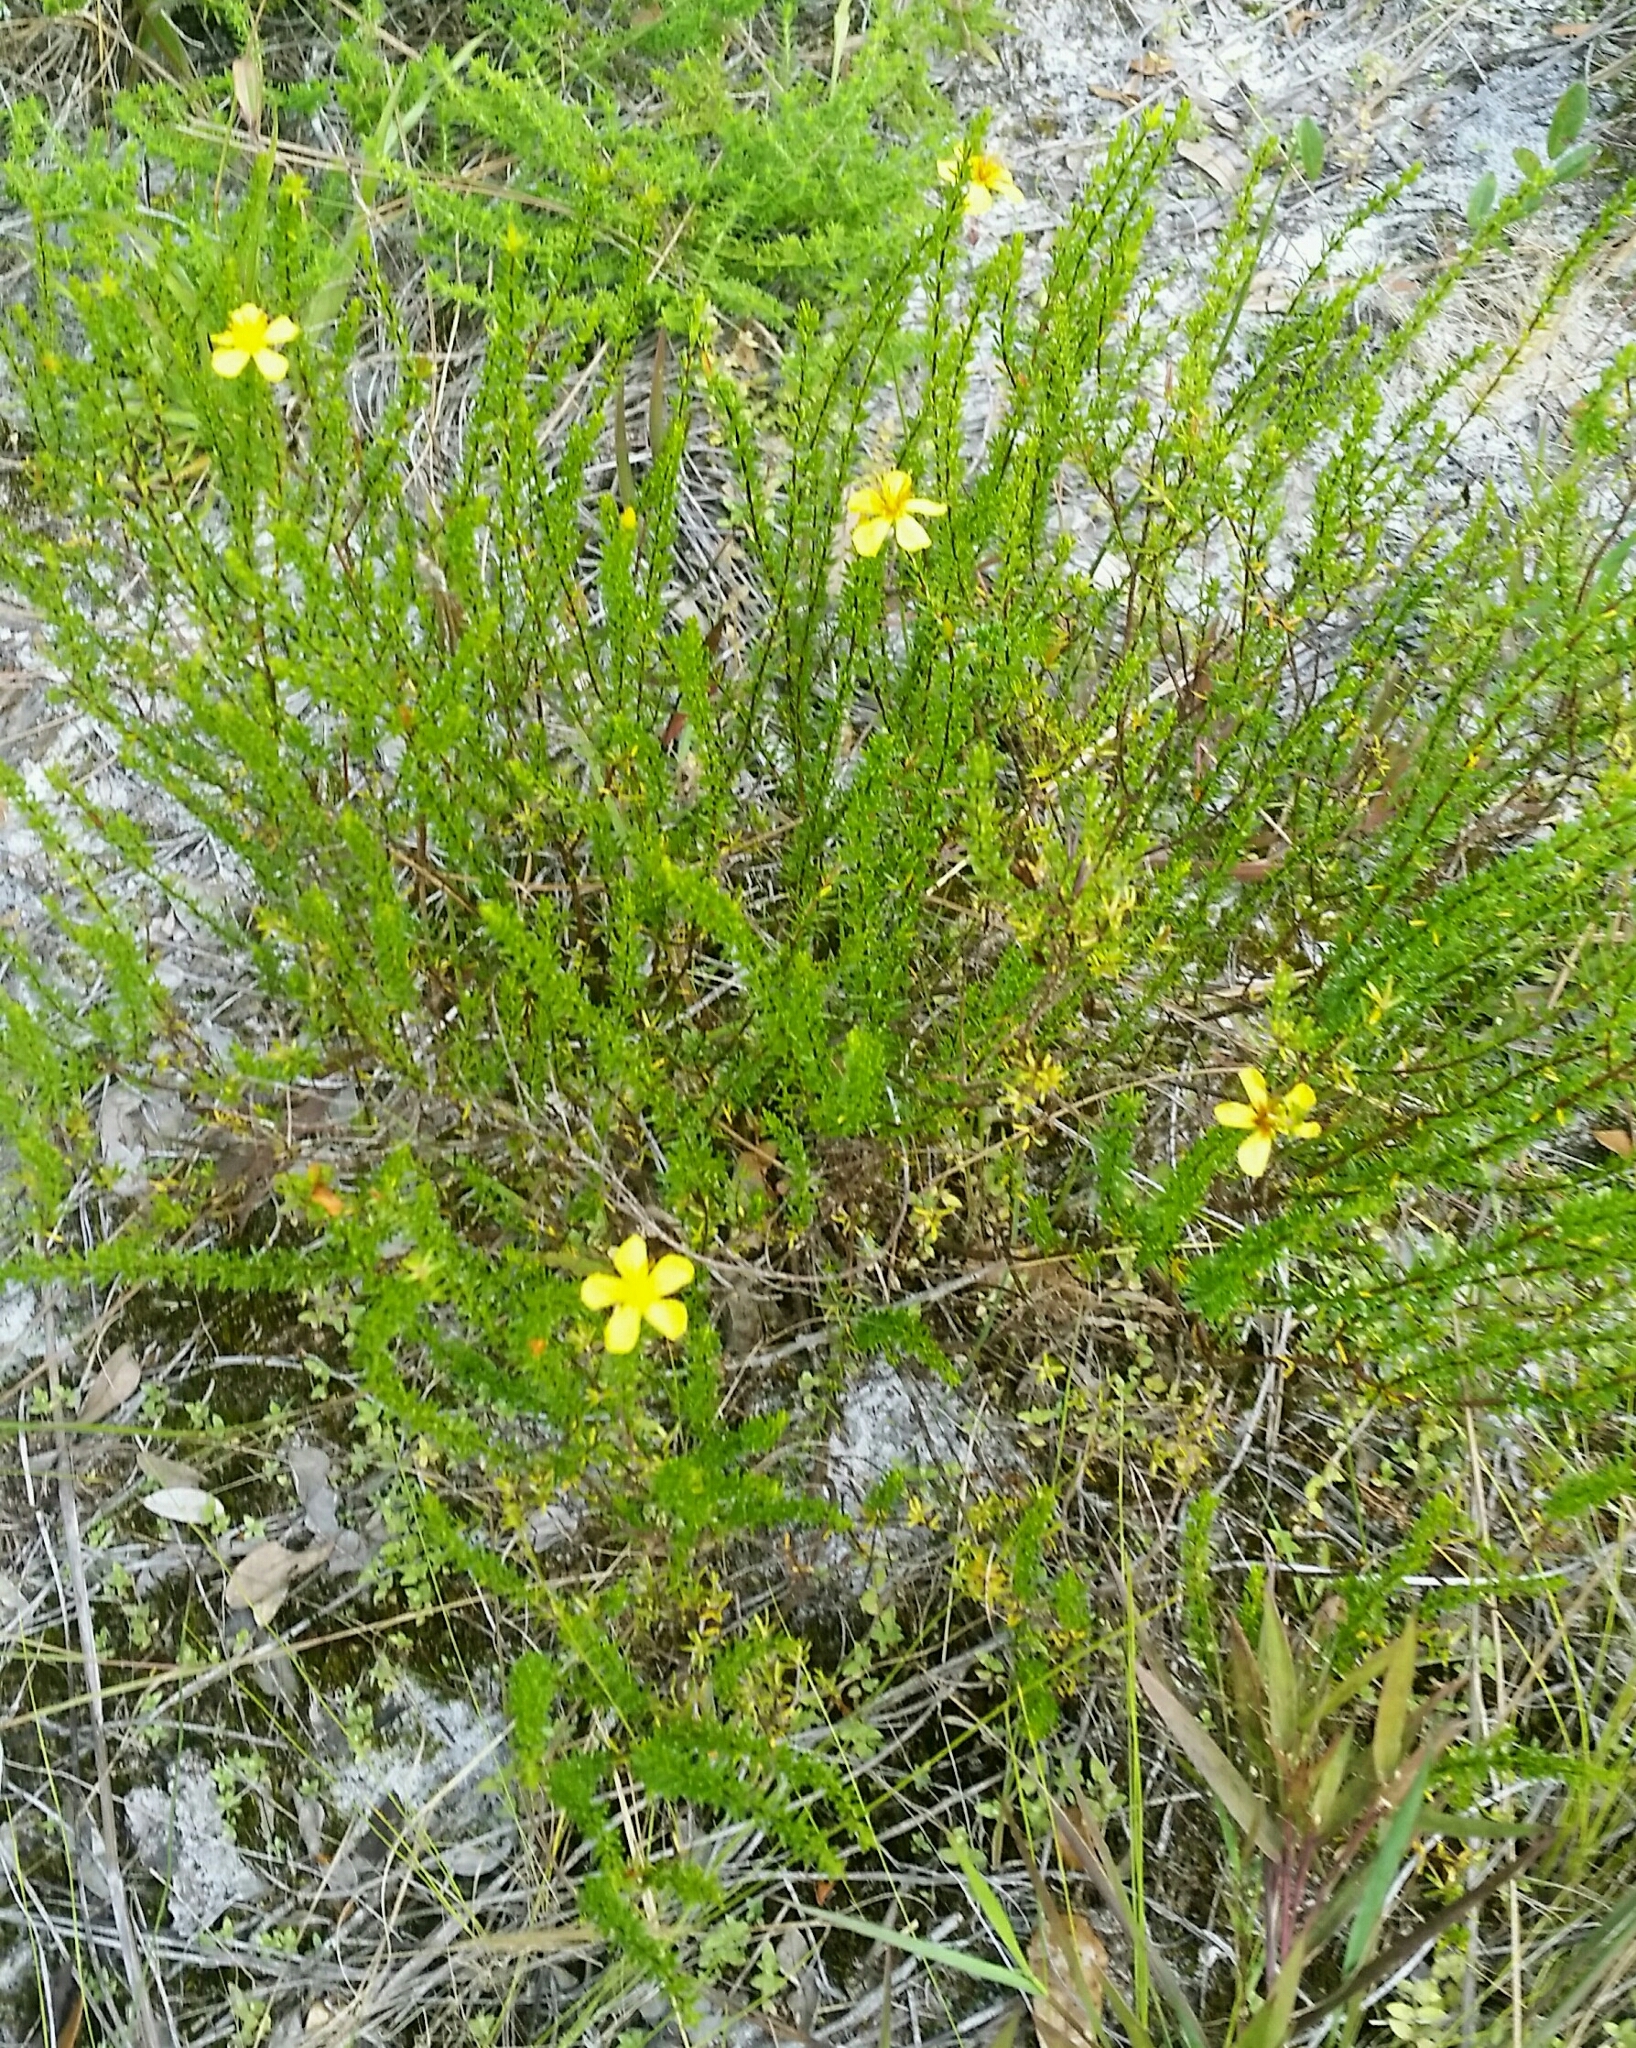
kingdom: Plantae
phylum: Tracheophyta
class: Magnoliopsida
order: Malpighiales
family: Hypericaceae
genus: Hypericum
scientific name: Hypericum tenuifolium
